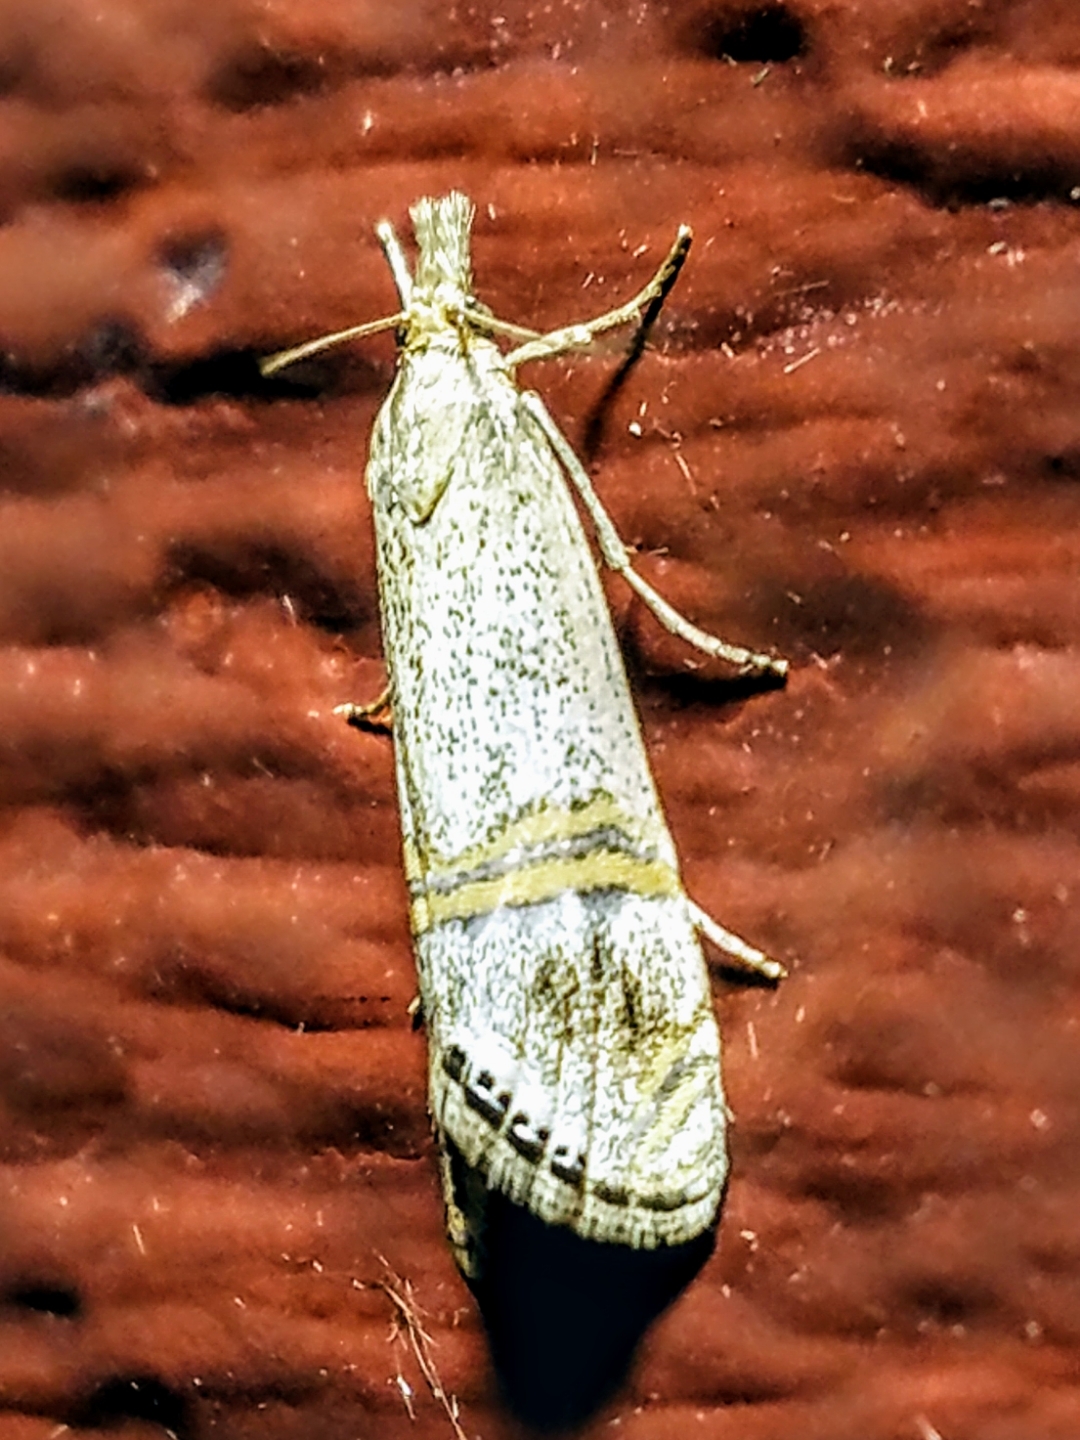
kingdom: Animalia
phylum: Arthropoda
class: Insecta
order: Lepidoptera
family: Crambidae
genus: Euchromius
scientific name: Euchromius ocellea
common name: Necklace veneer moth
